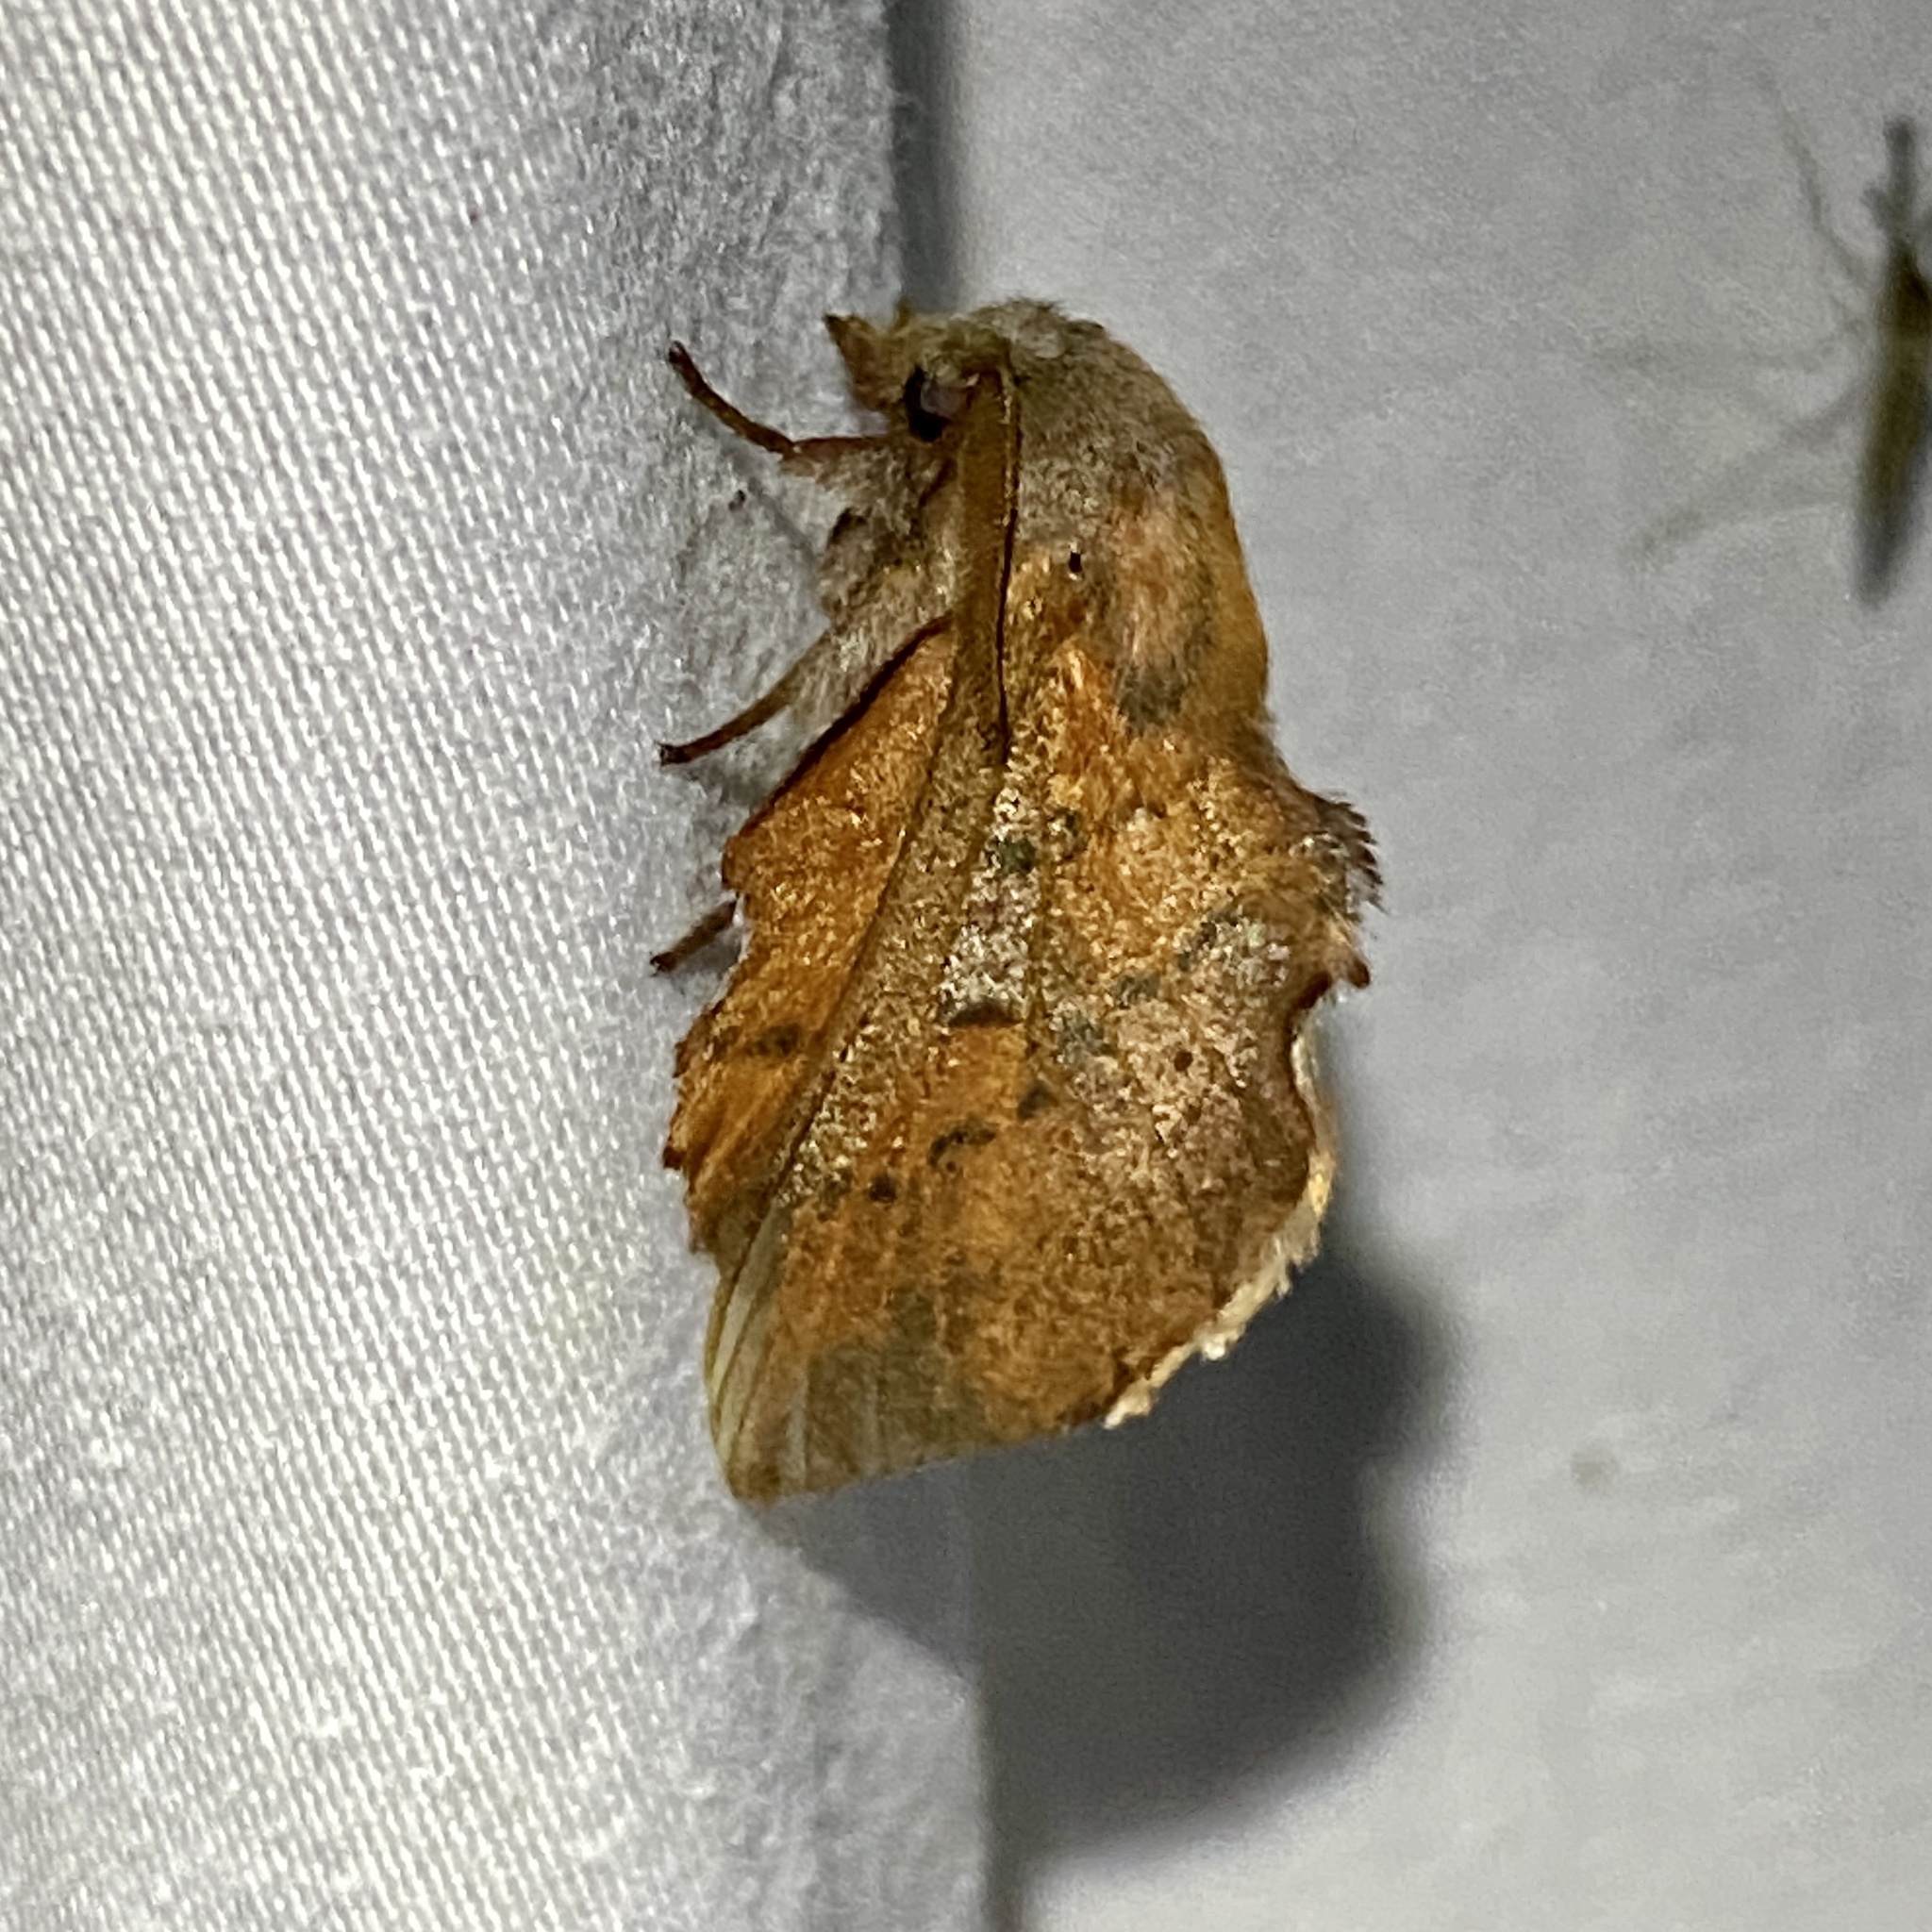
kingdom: Animalia
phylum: Arthropoda
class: Insecta
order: Lepidoptera
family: Lasiocampidae
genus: Phyllodesma
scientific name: Phyllodesma americana
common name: American lappet moth
